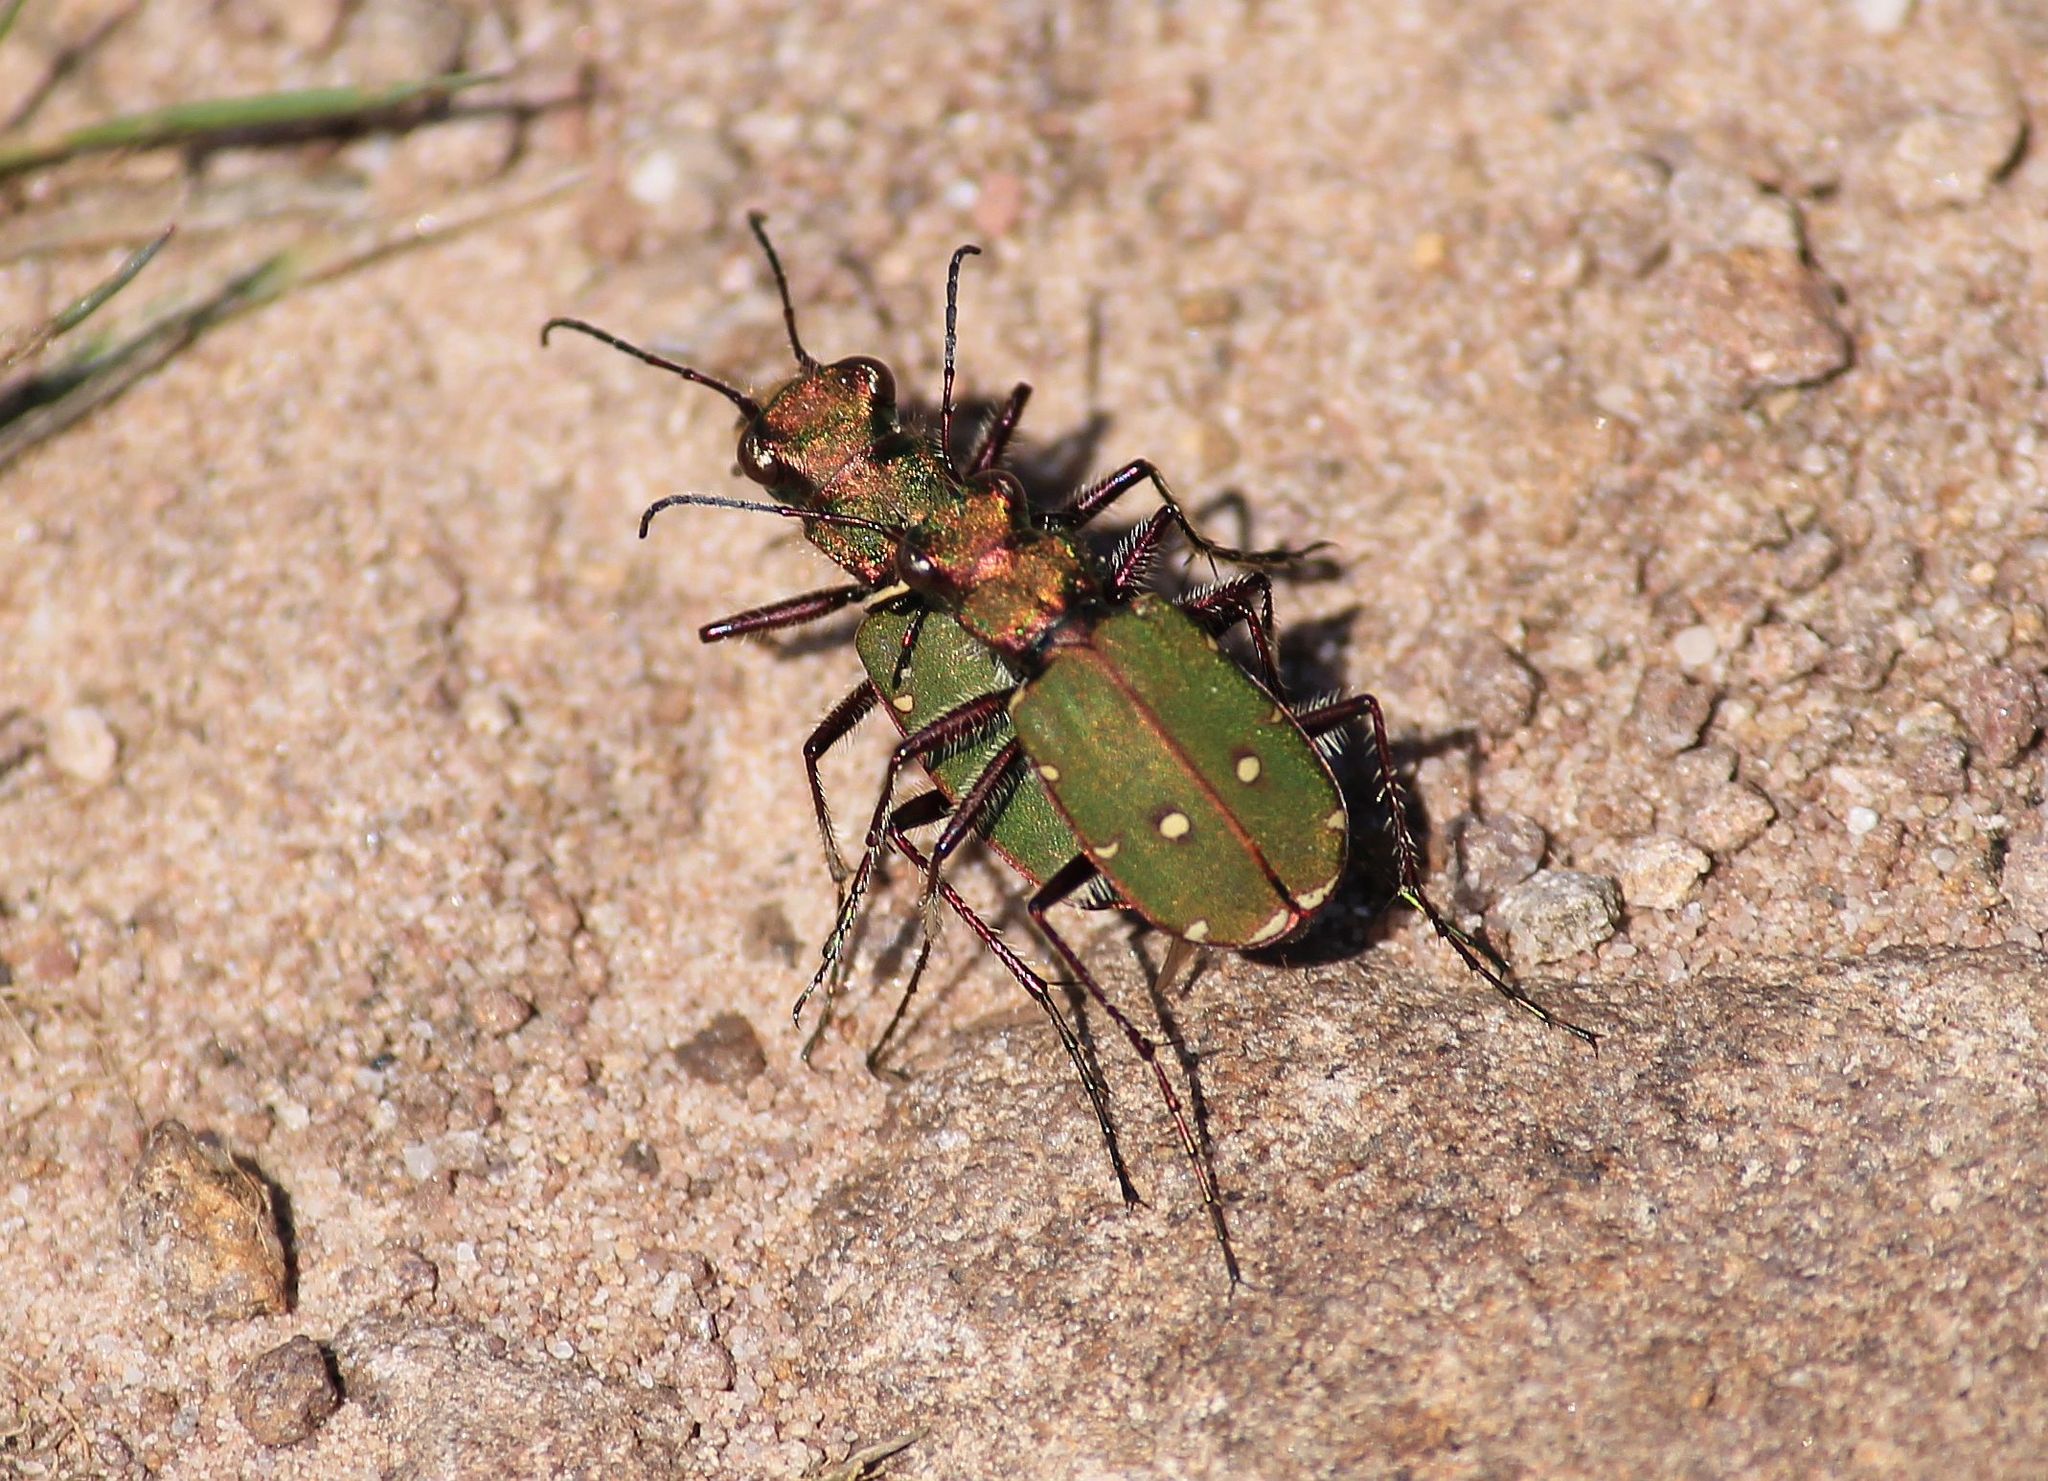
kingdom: Animalia
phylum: Arthropoda
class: Insecta
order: Coleoptera
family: Carabidae
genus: Cicindela
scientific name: Cicindela campestris
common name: Common tiger beetle
